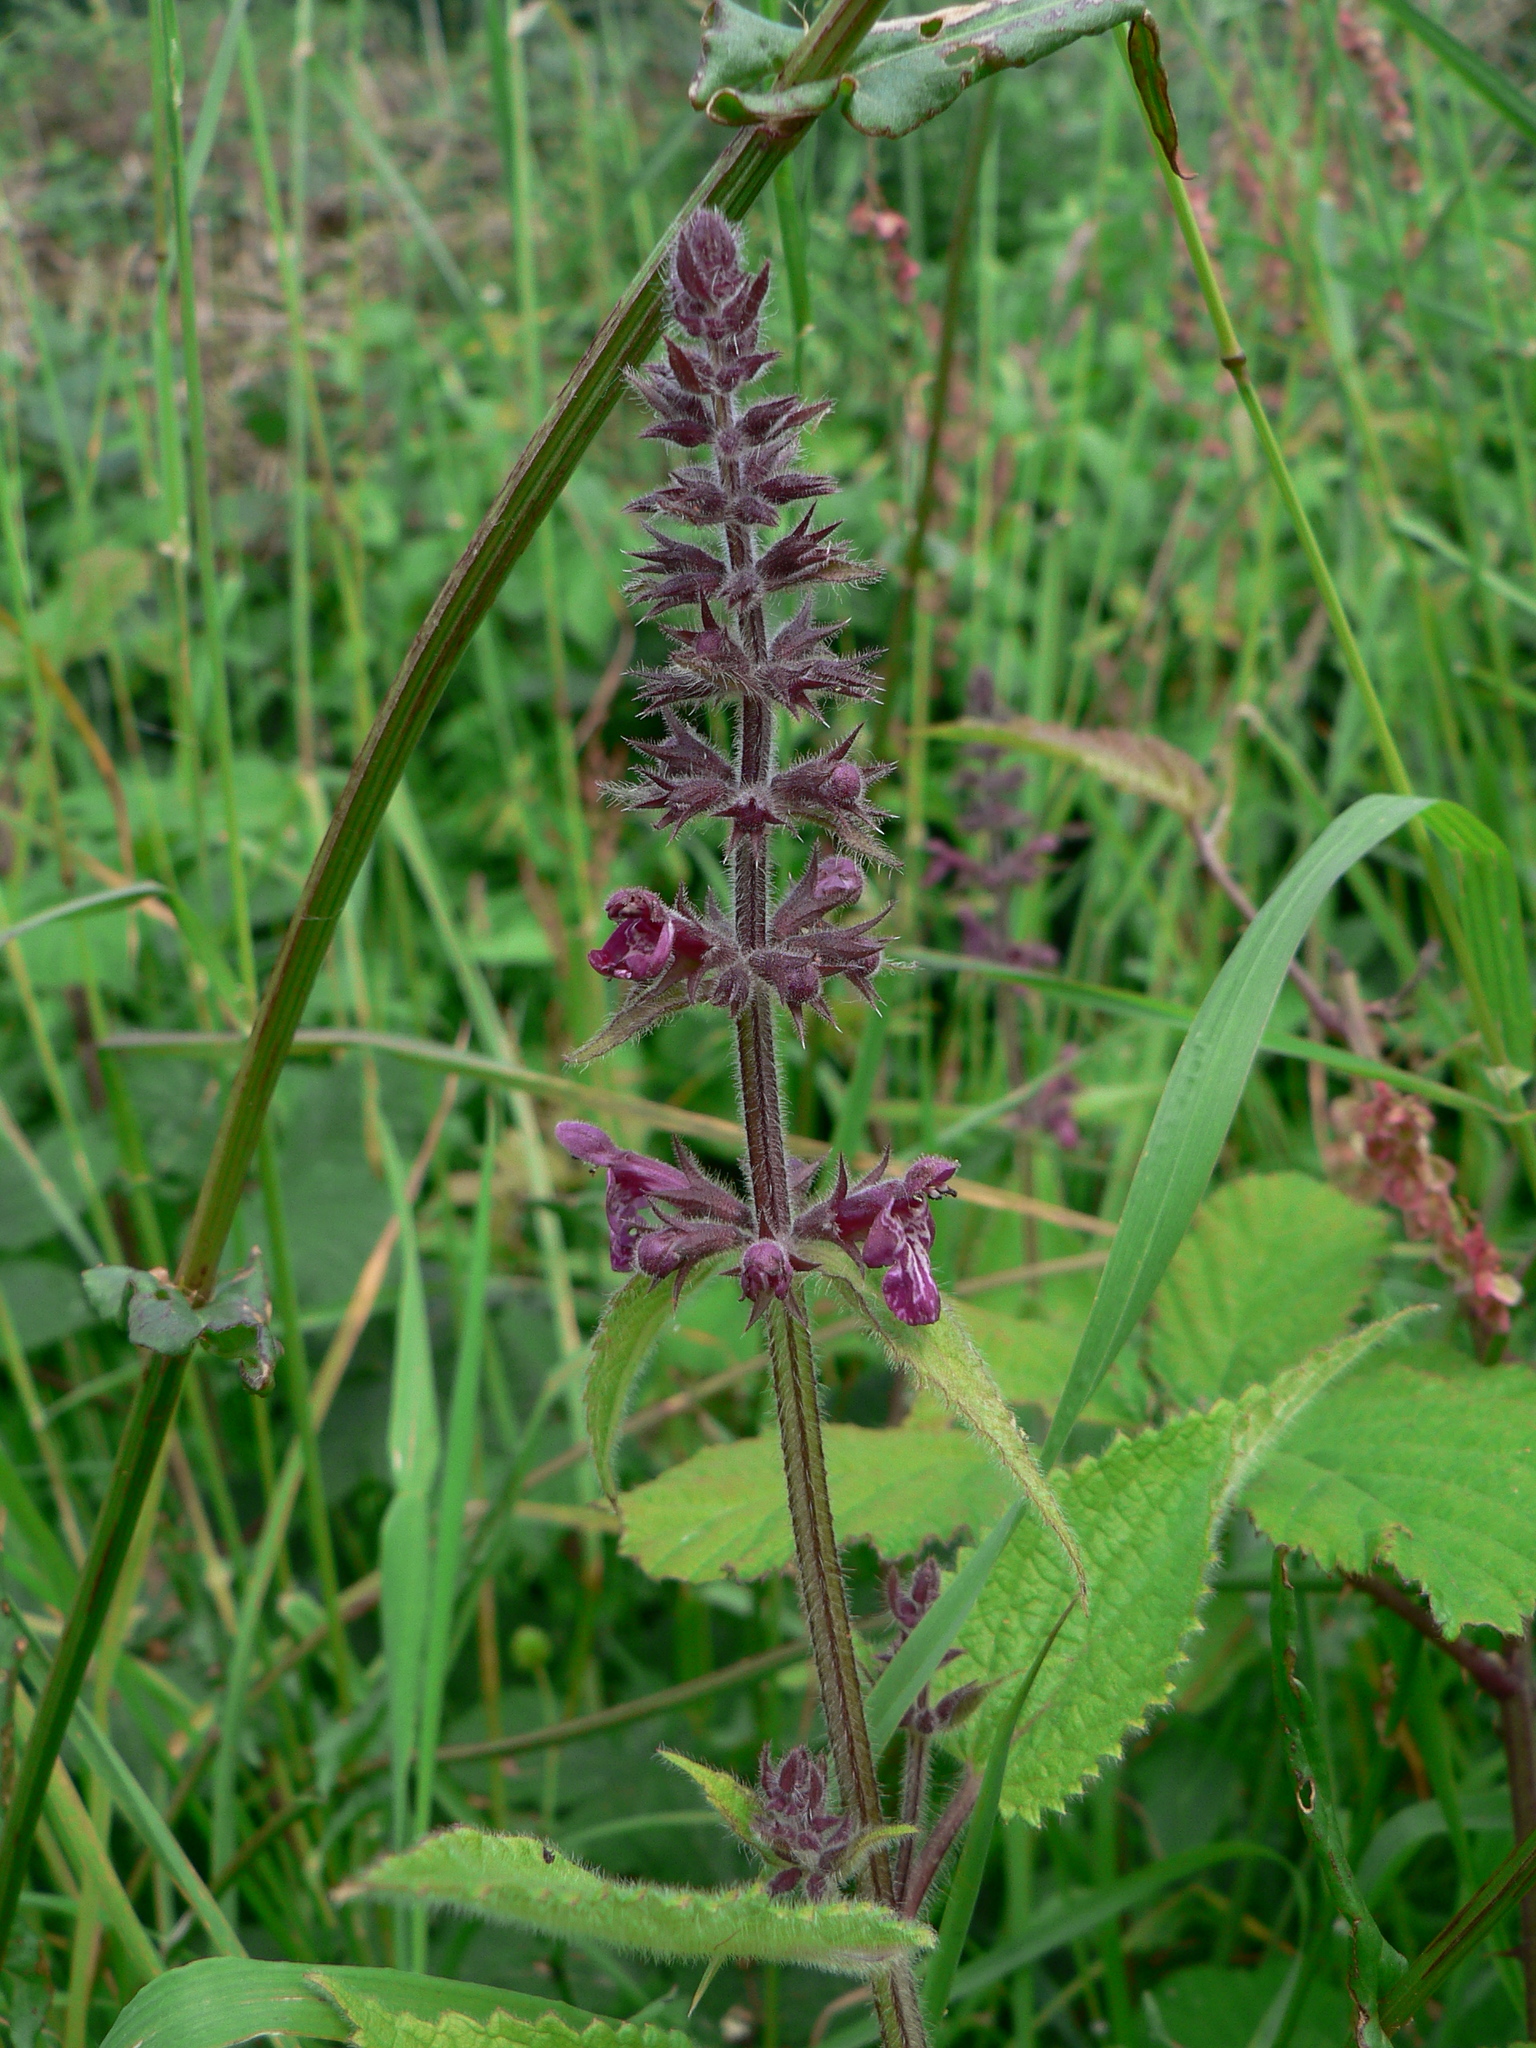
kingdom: Plantae
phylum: Tracheophyta
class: Magnoliopsida
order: Lamiales
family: Lamiaceae
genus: Stachys
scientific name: Stachys sylvatica
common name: Hedge woundwort
